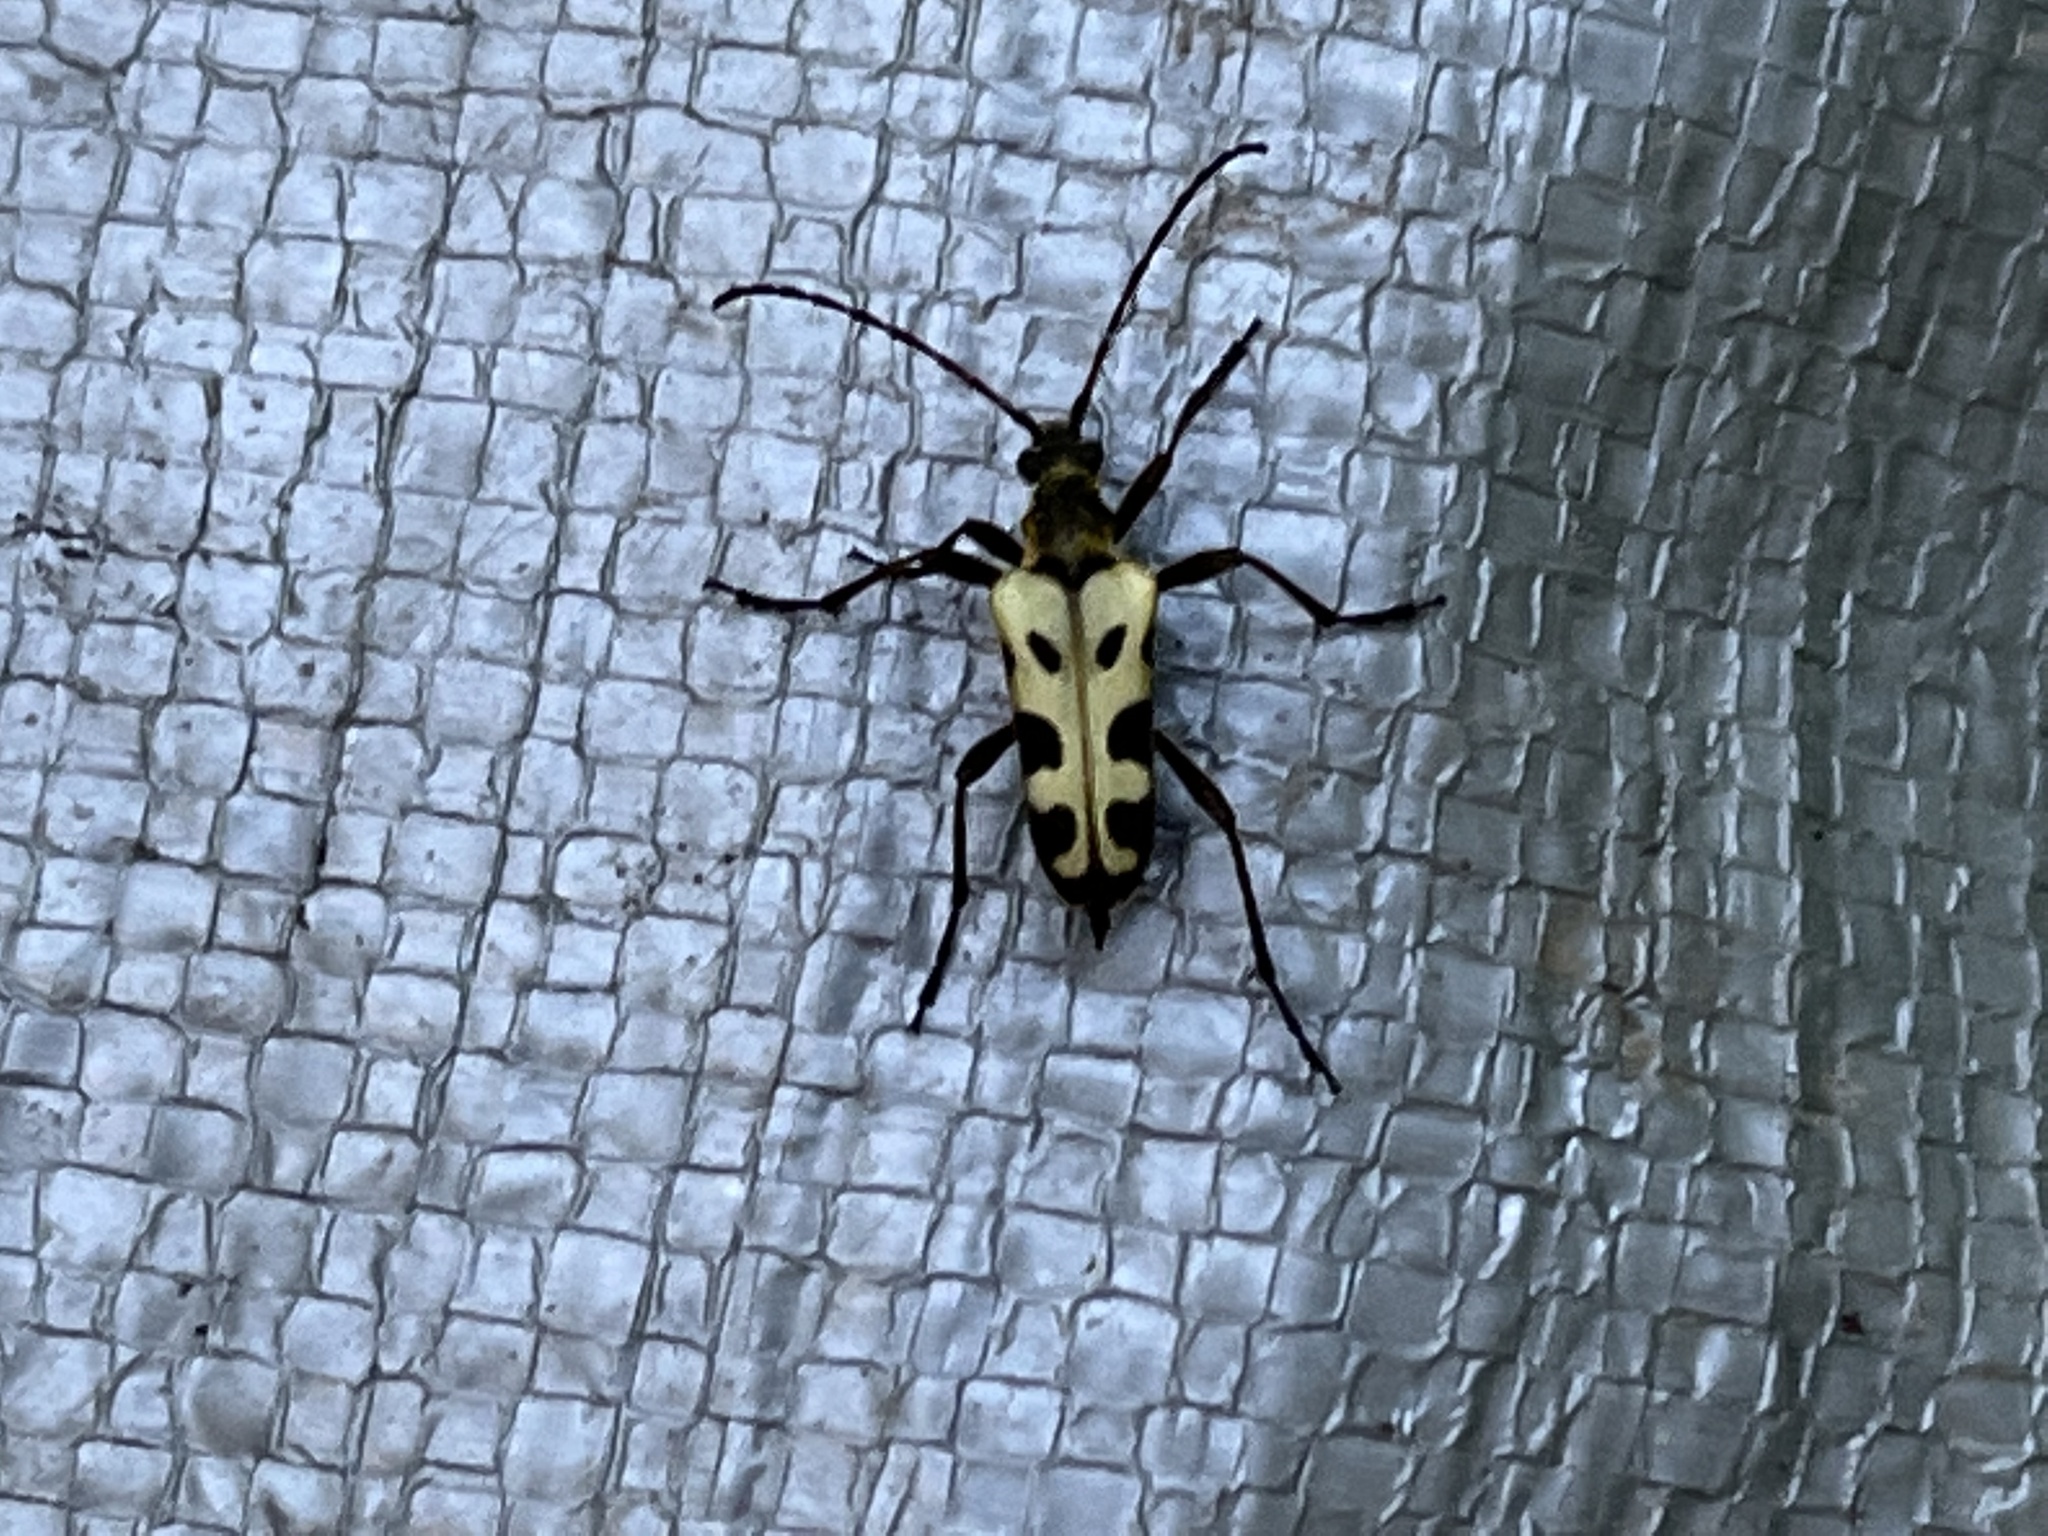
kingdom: Animalia
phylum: Arthropoda
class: Insecta
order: Coleoptera
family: Cerambycidae
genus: Evodinus
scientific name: Evodinus monticola
